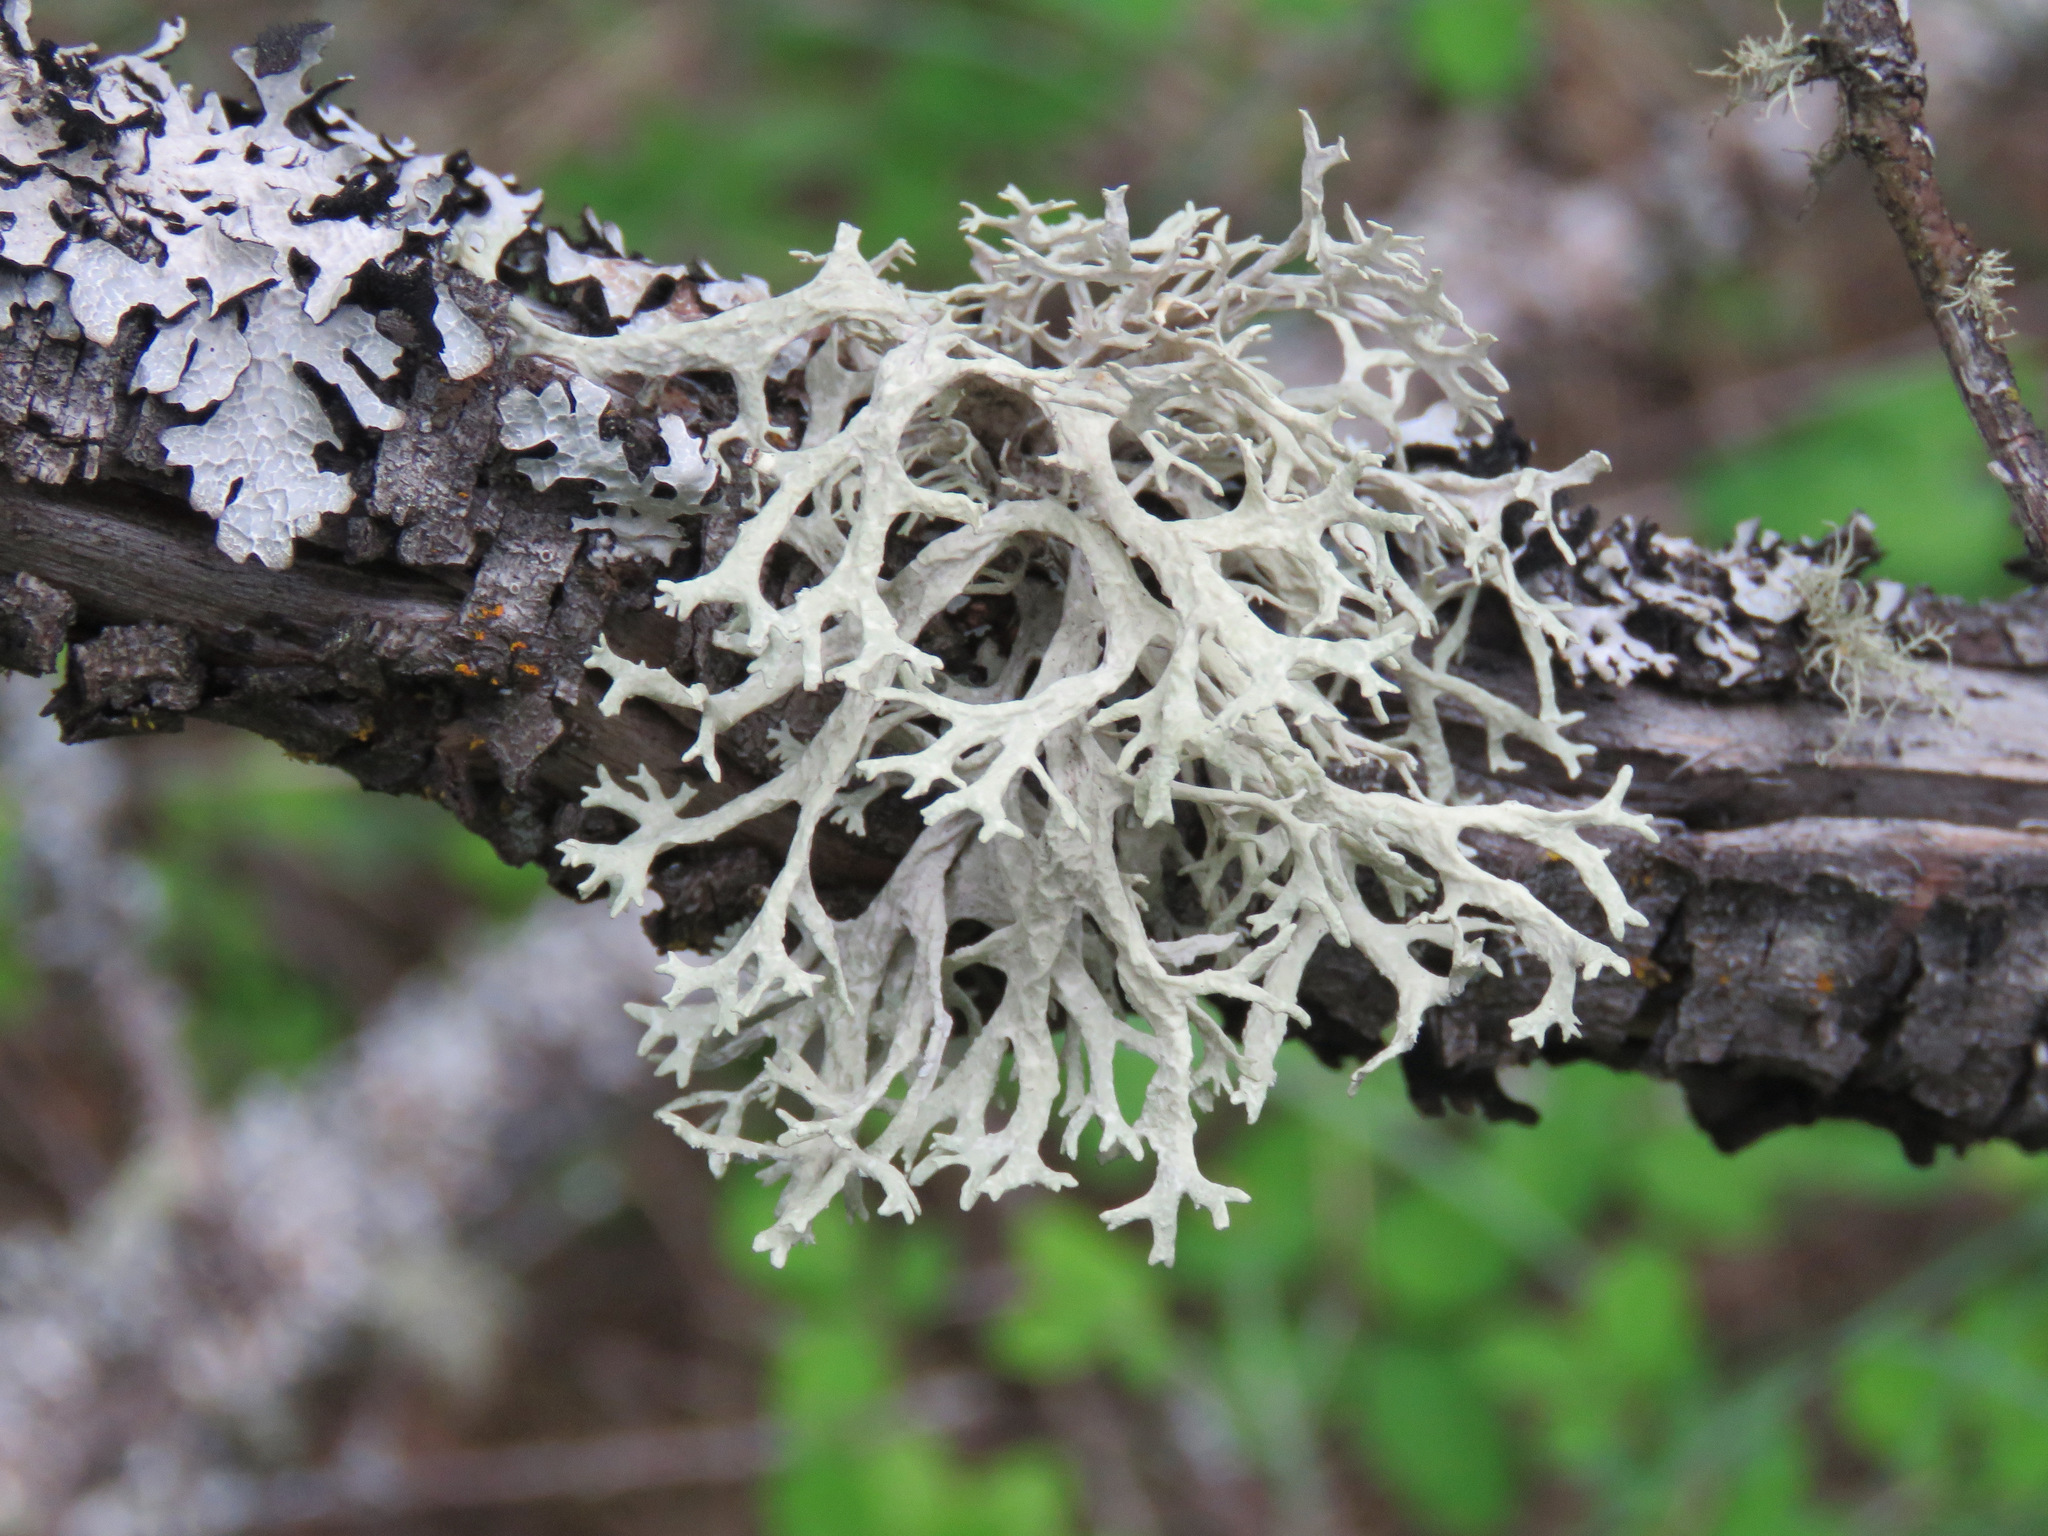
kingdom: Fungi
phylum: Ascomycota
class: Lecanoromycetes
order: Lecanorales
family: Parmeliaceae
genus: Evernia
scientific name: Evernia prunastri
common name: Oak moss
